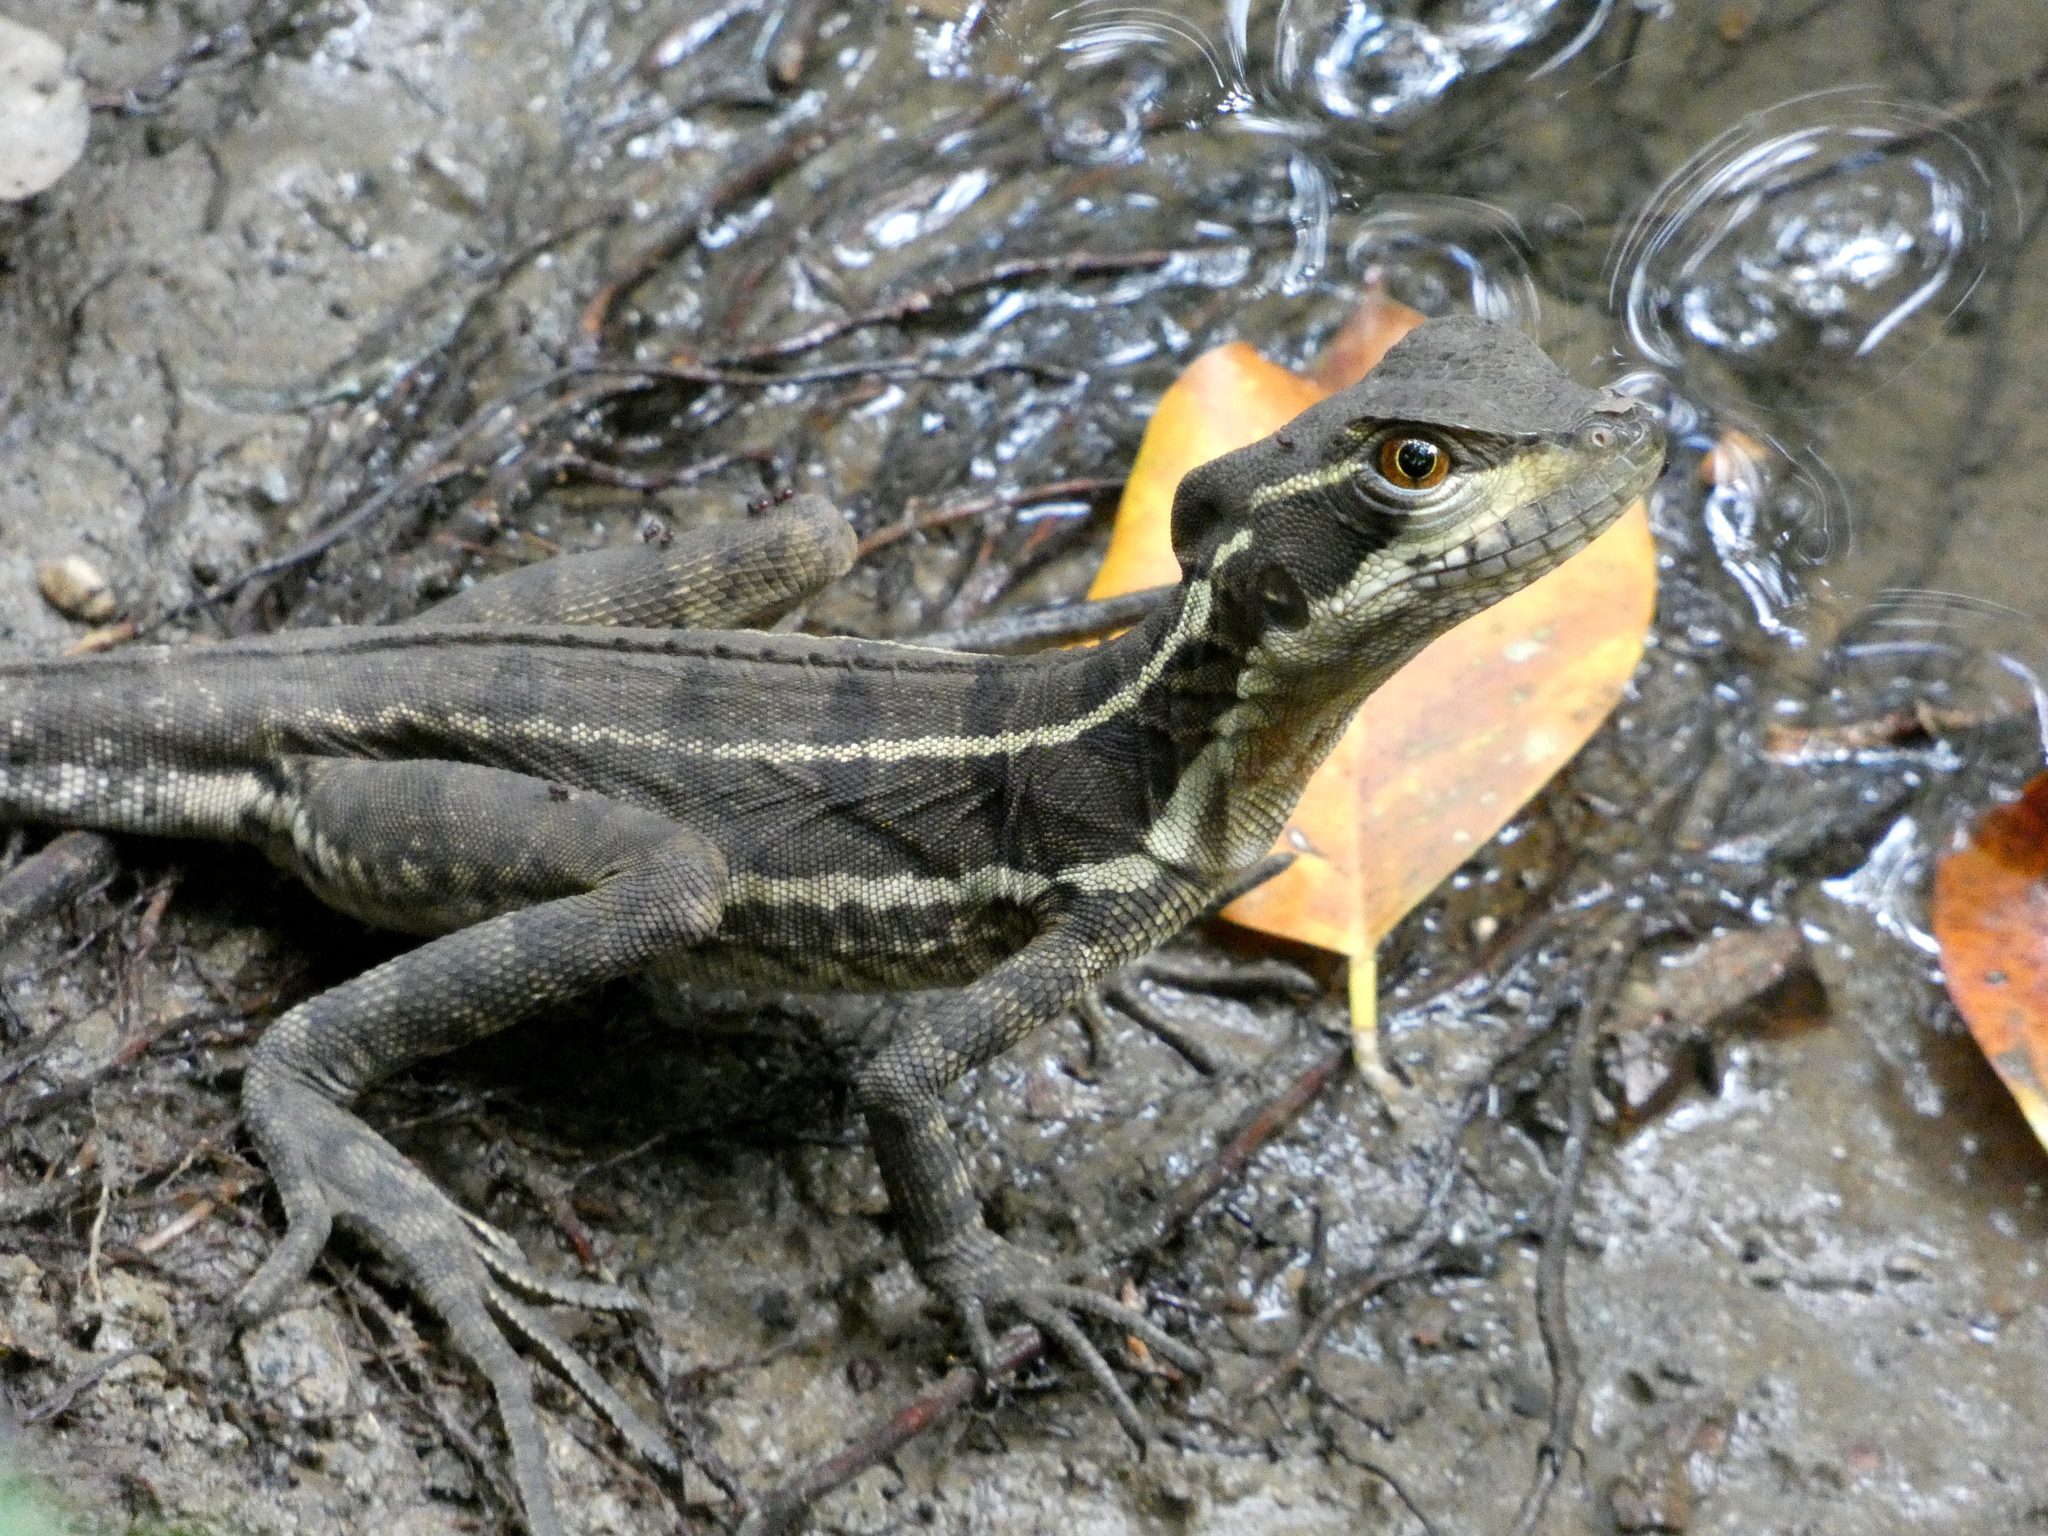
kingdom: Animalia
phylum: Chordata
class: Squamata
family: Corytophanidae
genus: Basiliscus
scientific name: Basiliscus basiliscus
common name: Common basilisk
